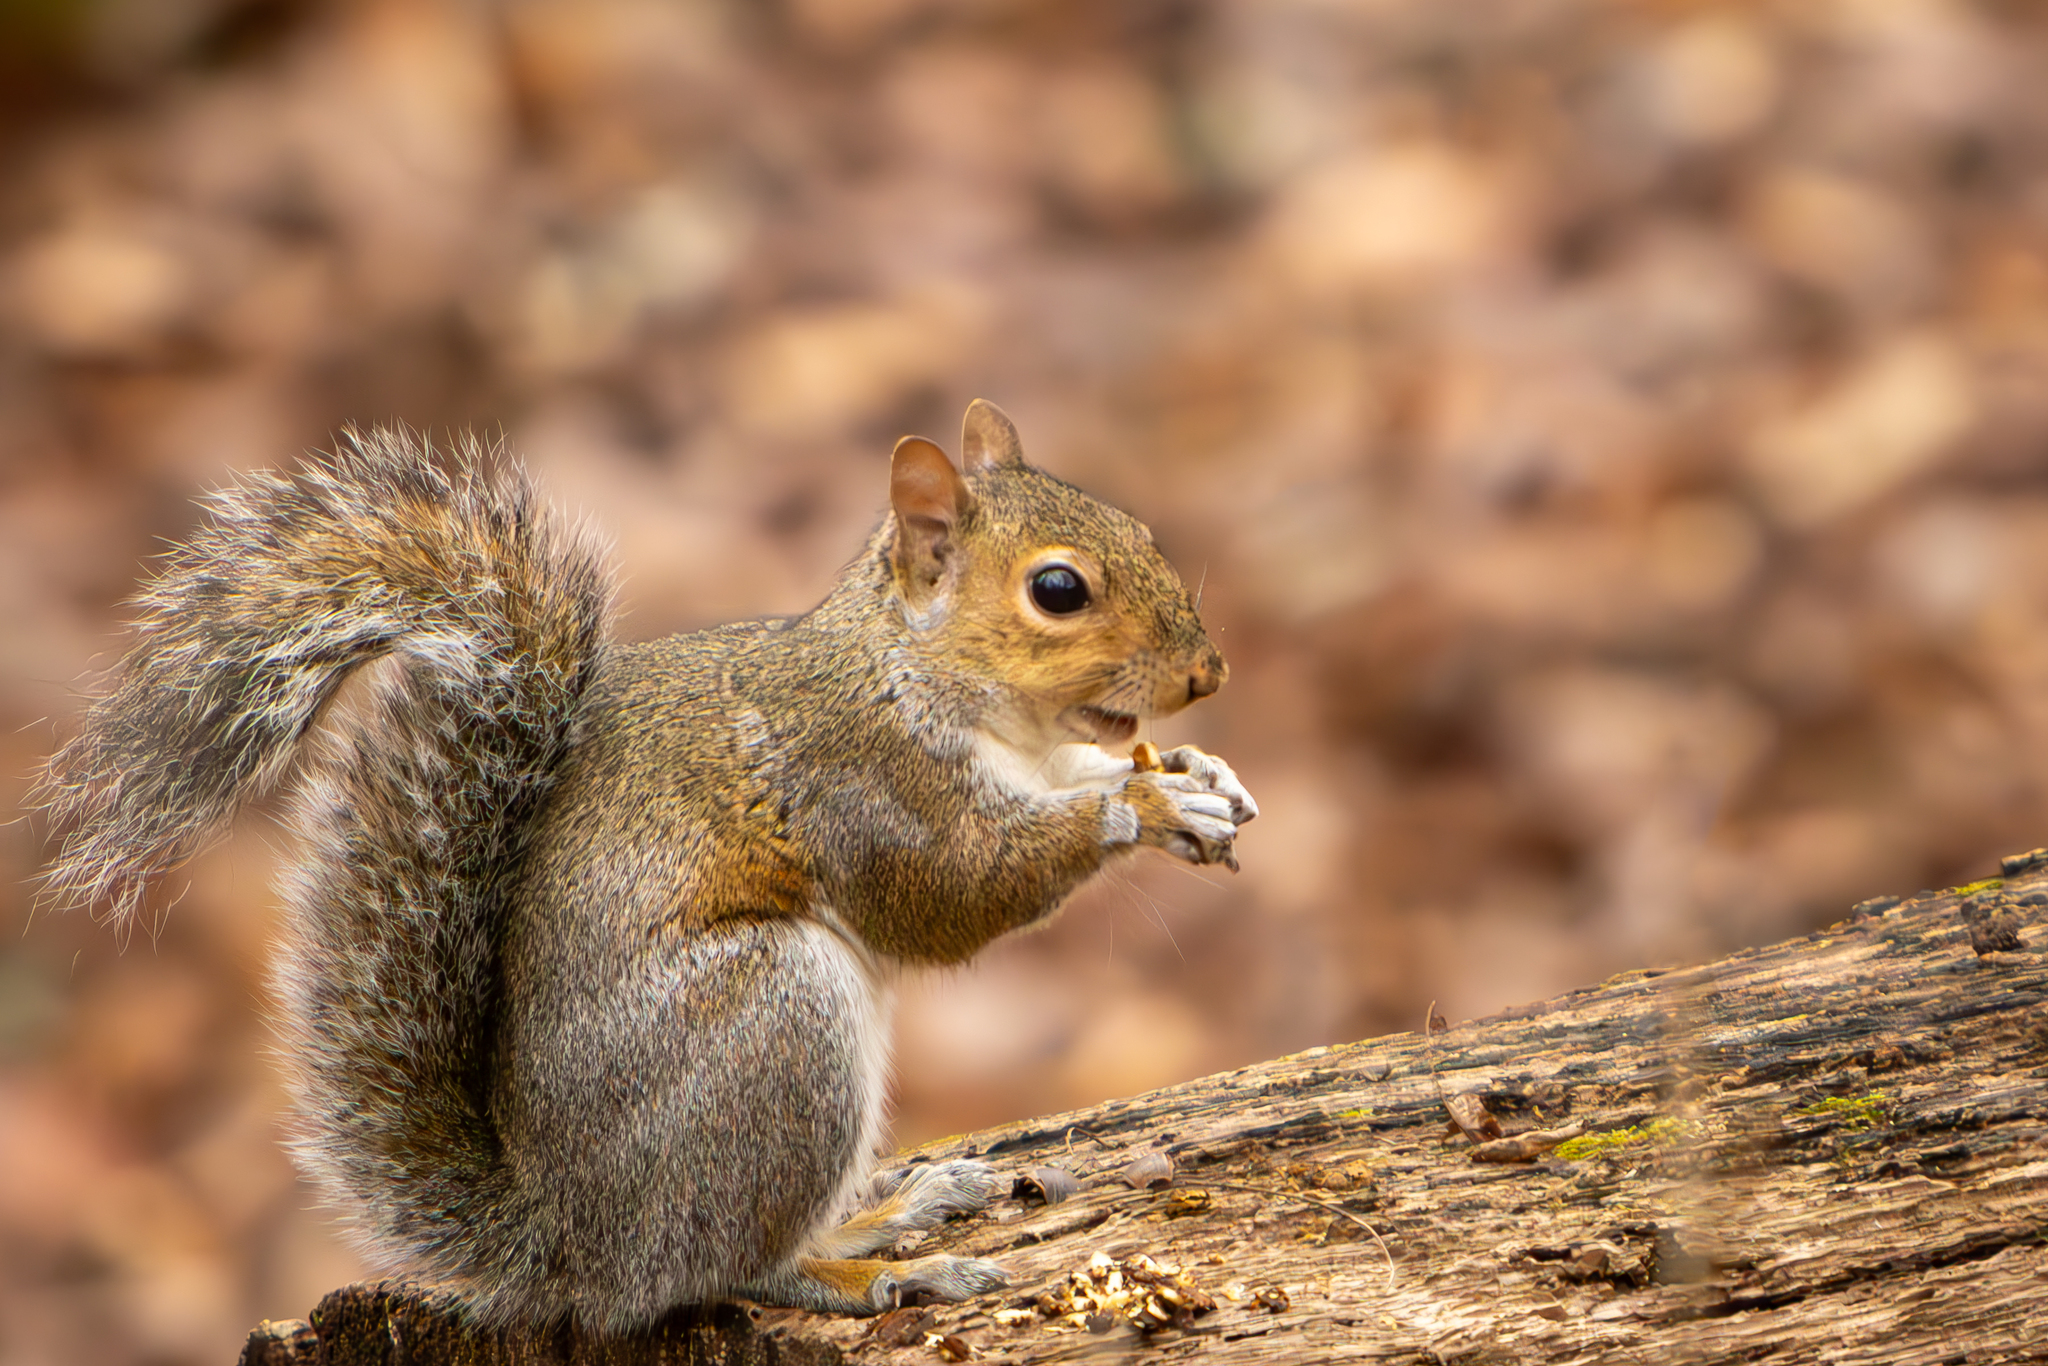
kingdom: Animalia
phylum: Chordata
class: Mammalia
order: Rodentia
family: Sciuridae
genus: Sciurus
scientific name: Sciurus carolinensis
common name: Eastern gray squirrel
